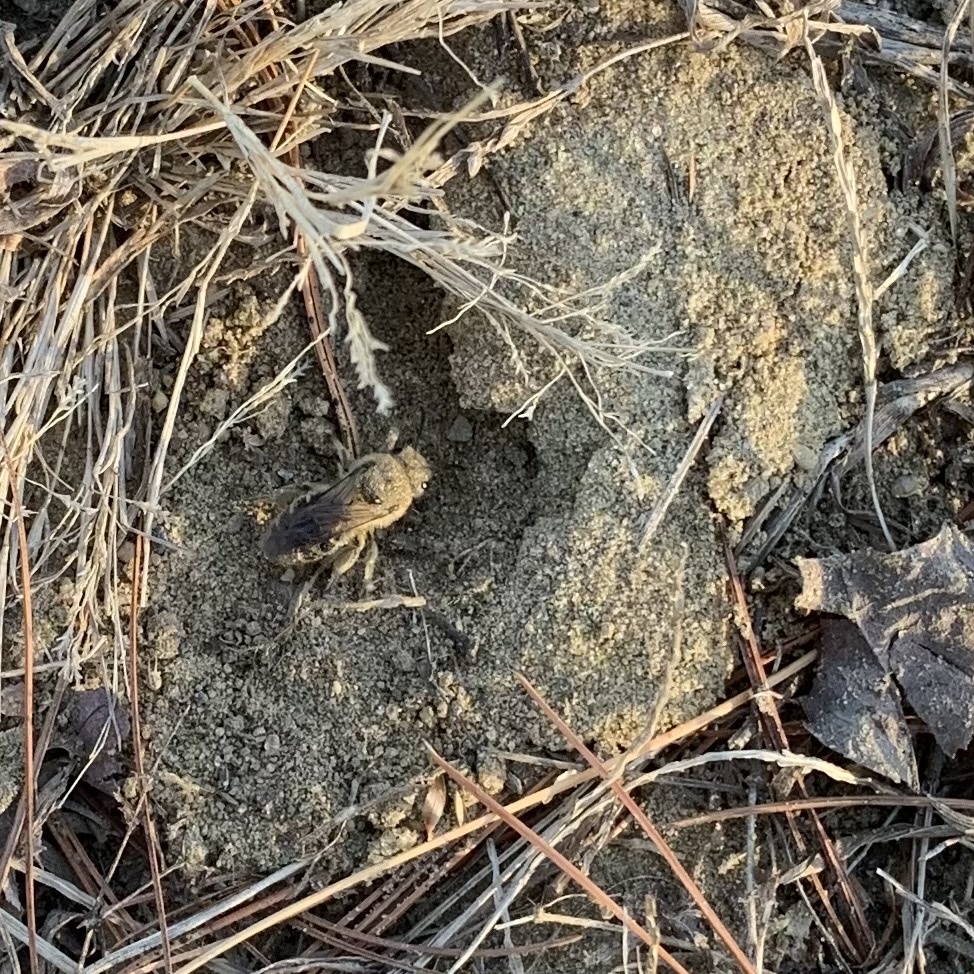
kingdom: Animalia
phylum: Arthropoda
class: Insecta
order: Hymenoptera
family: Colletidae
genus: Colletes
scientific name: Colletes inaequalis
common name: Unequal cellophane bee
